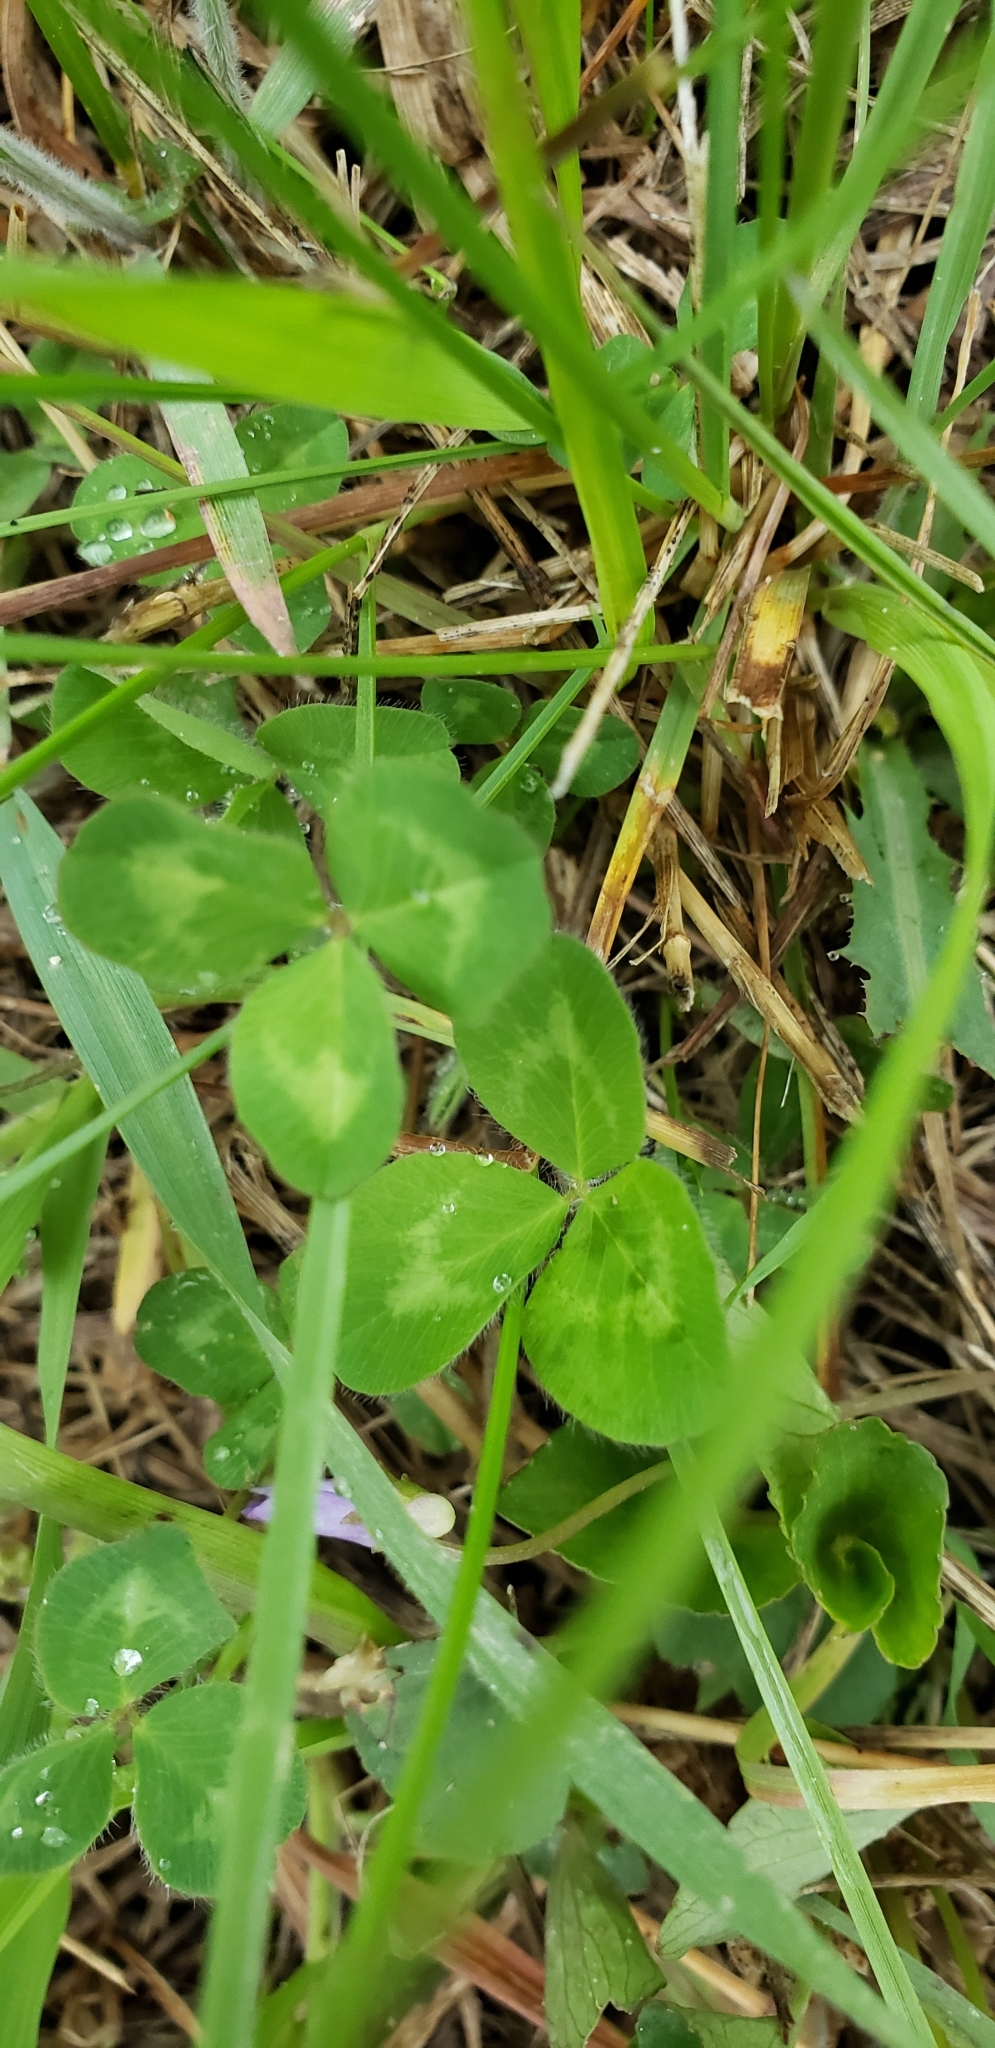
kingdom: Plantae
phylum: Tracheophyta
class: Magnoliopsida
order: Fabales
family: Fabaceae
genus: Trifolium
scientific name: Trifolium pratense
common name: Red clover
